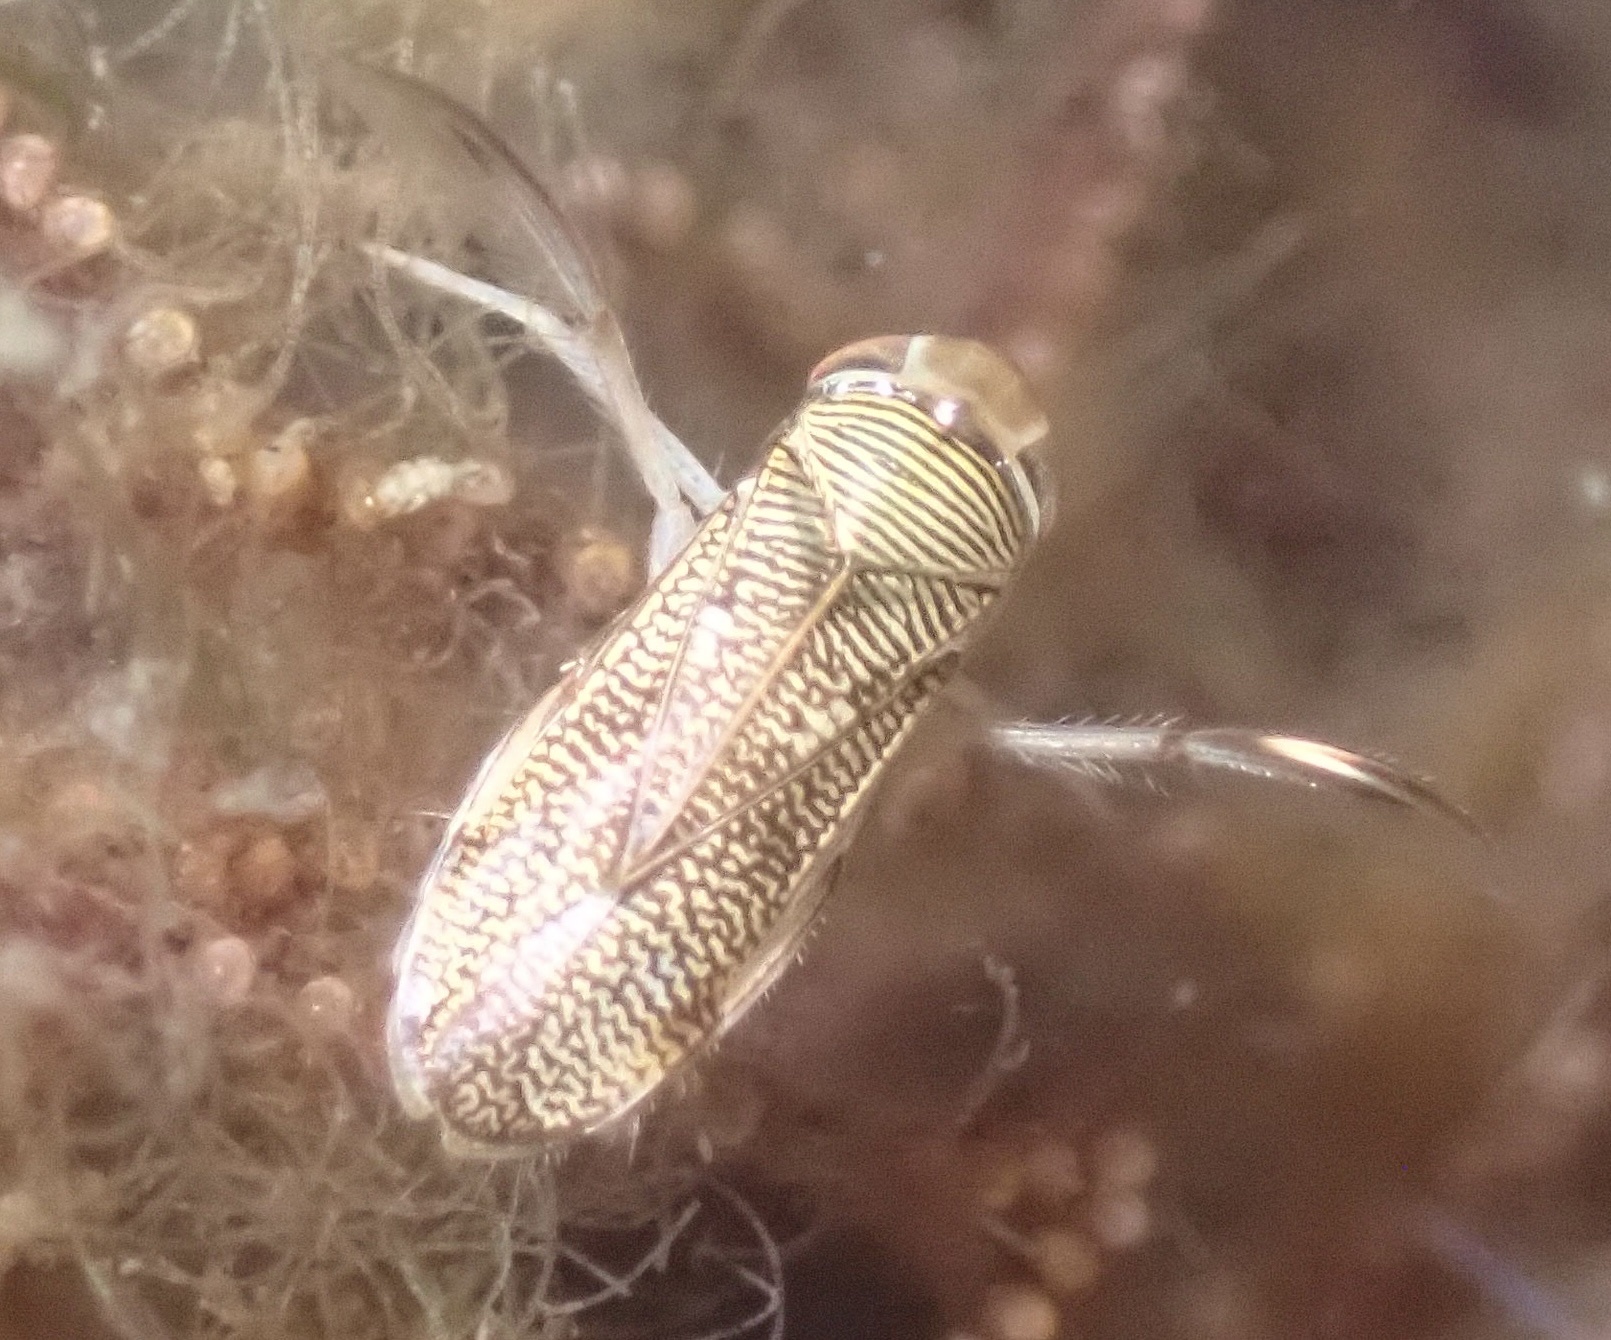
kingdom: Animalia
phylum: Arthropoda
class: Insecta
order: Hemiptera
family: Corixidae
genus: Trichocorixa
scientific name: Trichocorixa reticulata
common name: Water boatman
